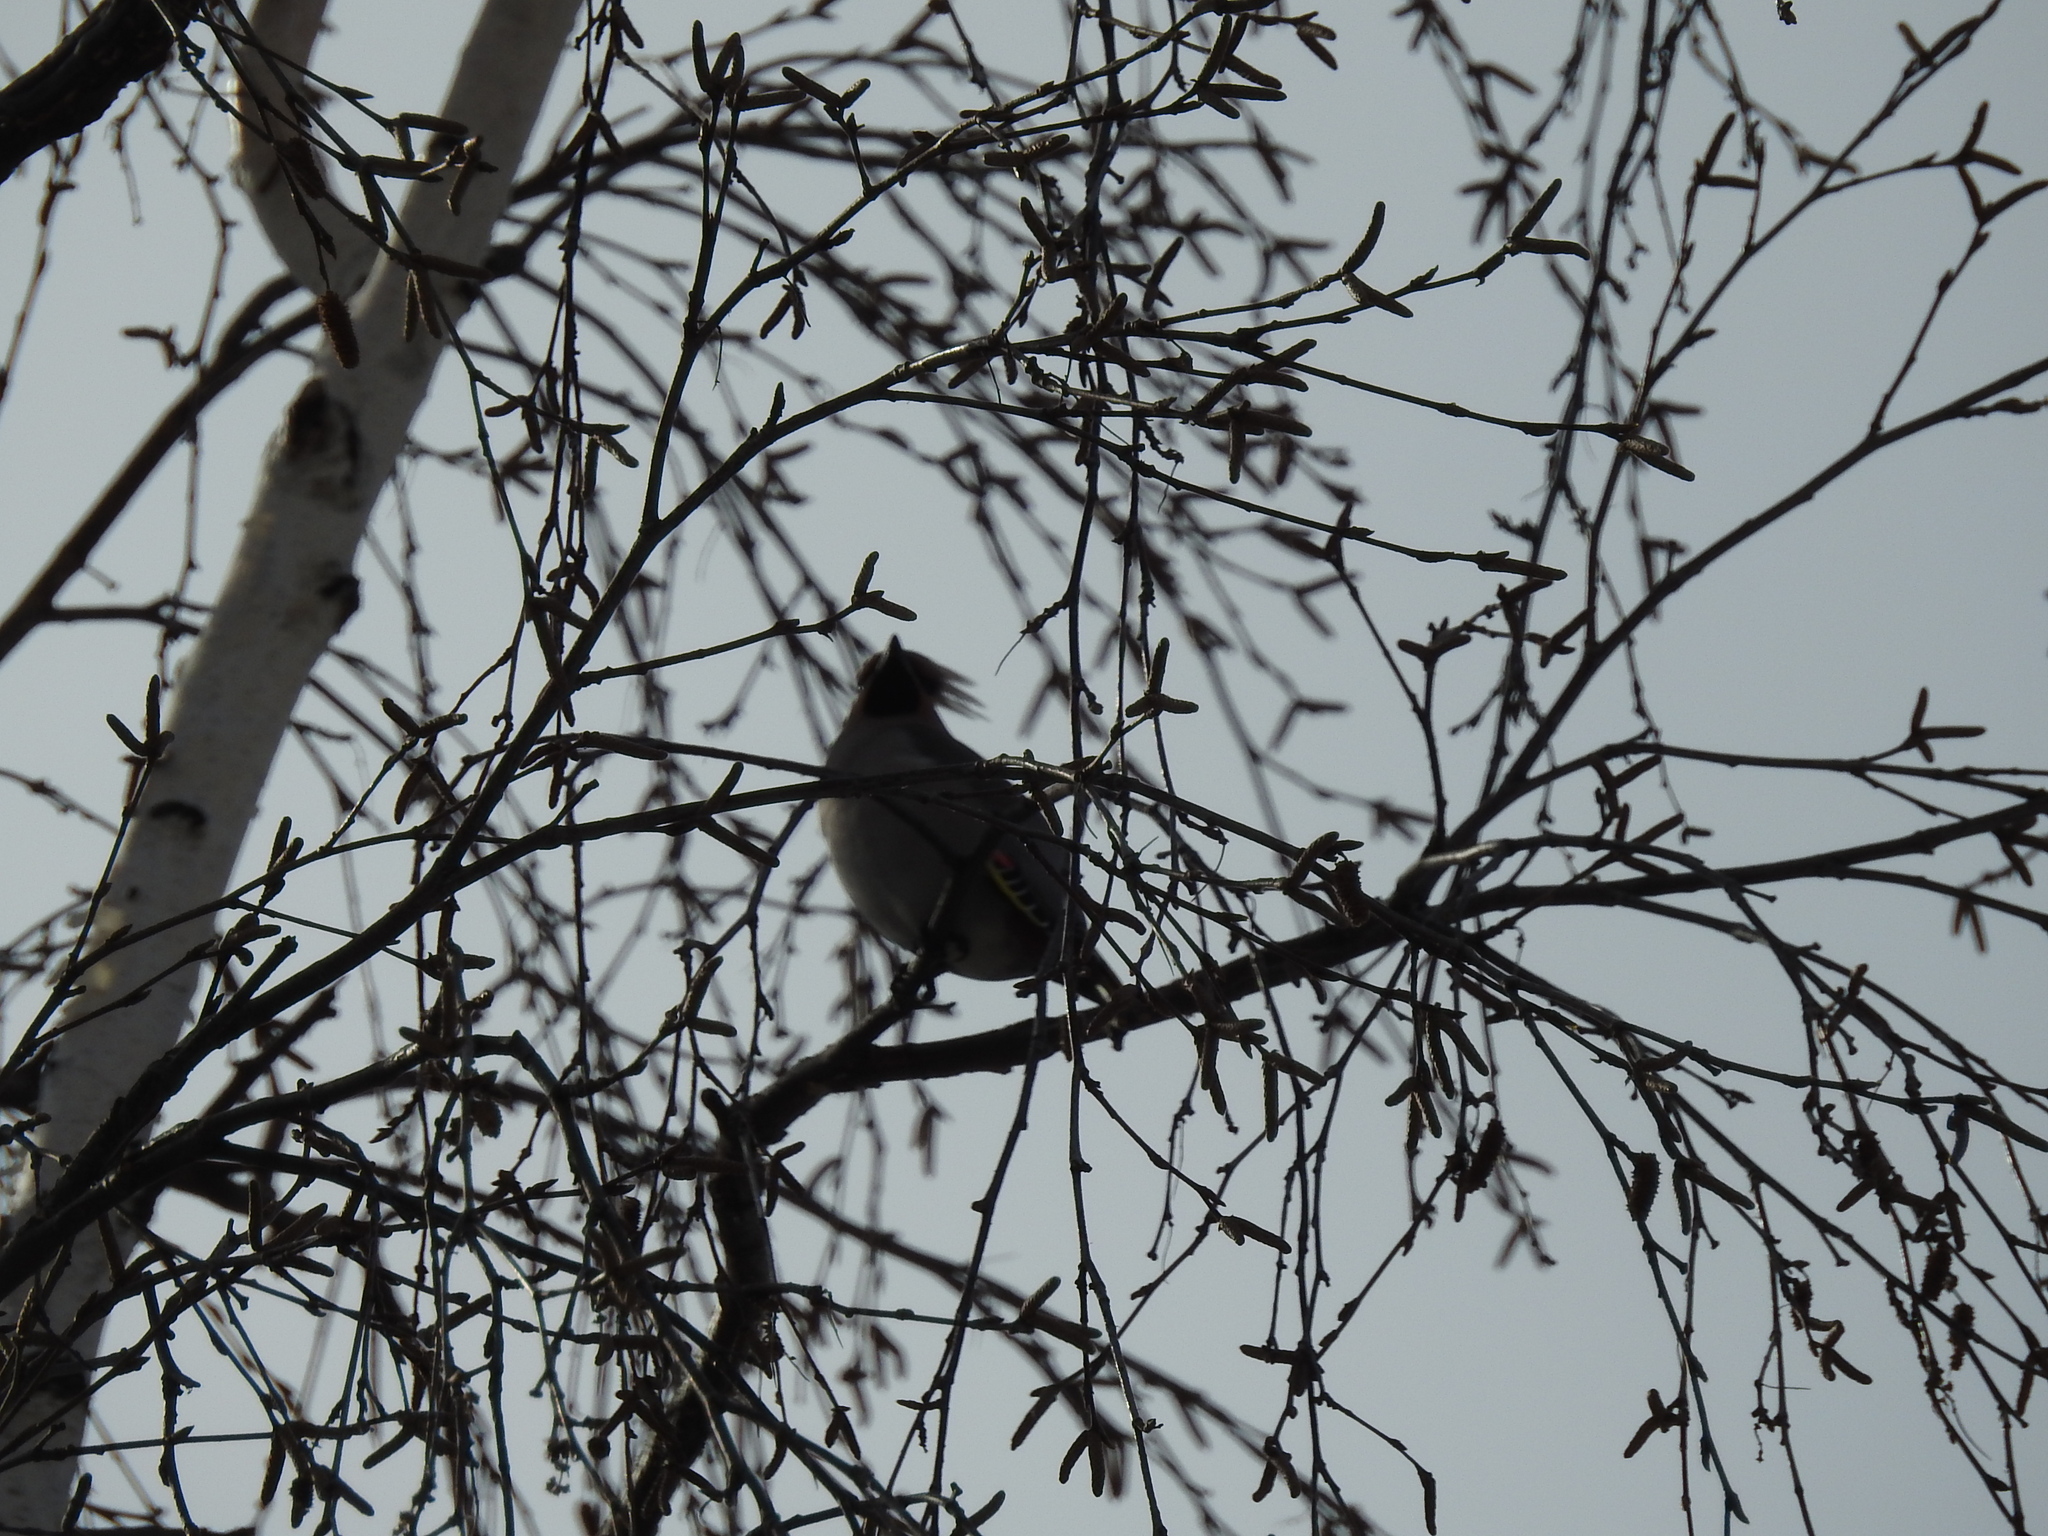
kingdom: Animalia
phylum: Chordata
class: Aves
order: Passeriformes
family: Bombycillidae
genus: Bombycilla
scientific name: Bombycilla garrulus
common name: Bohemian waxwing
